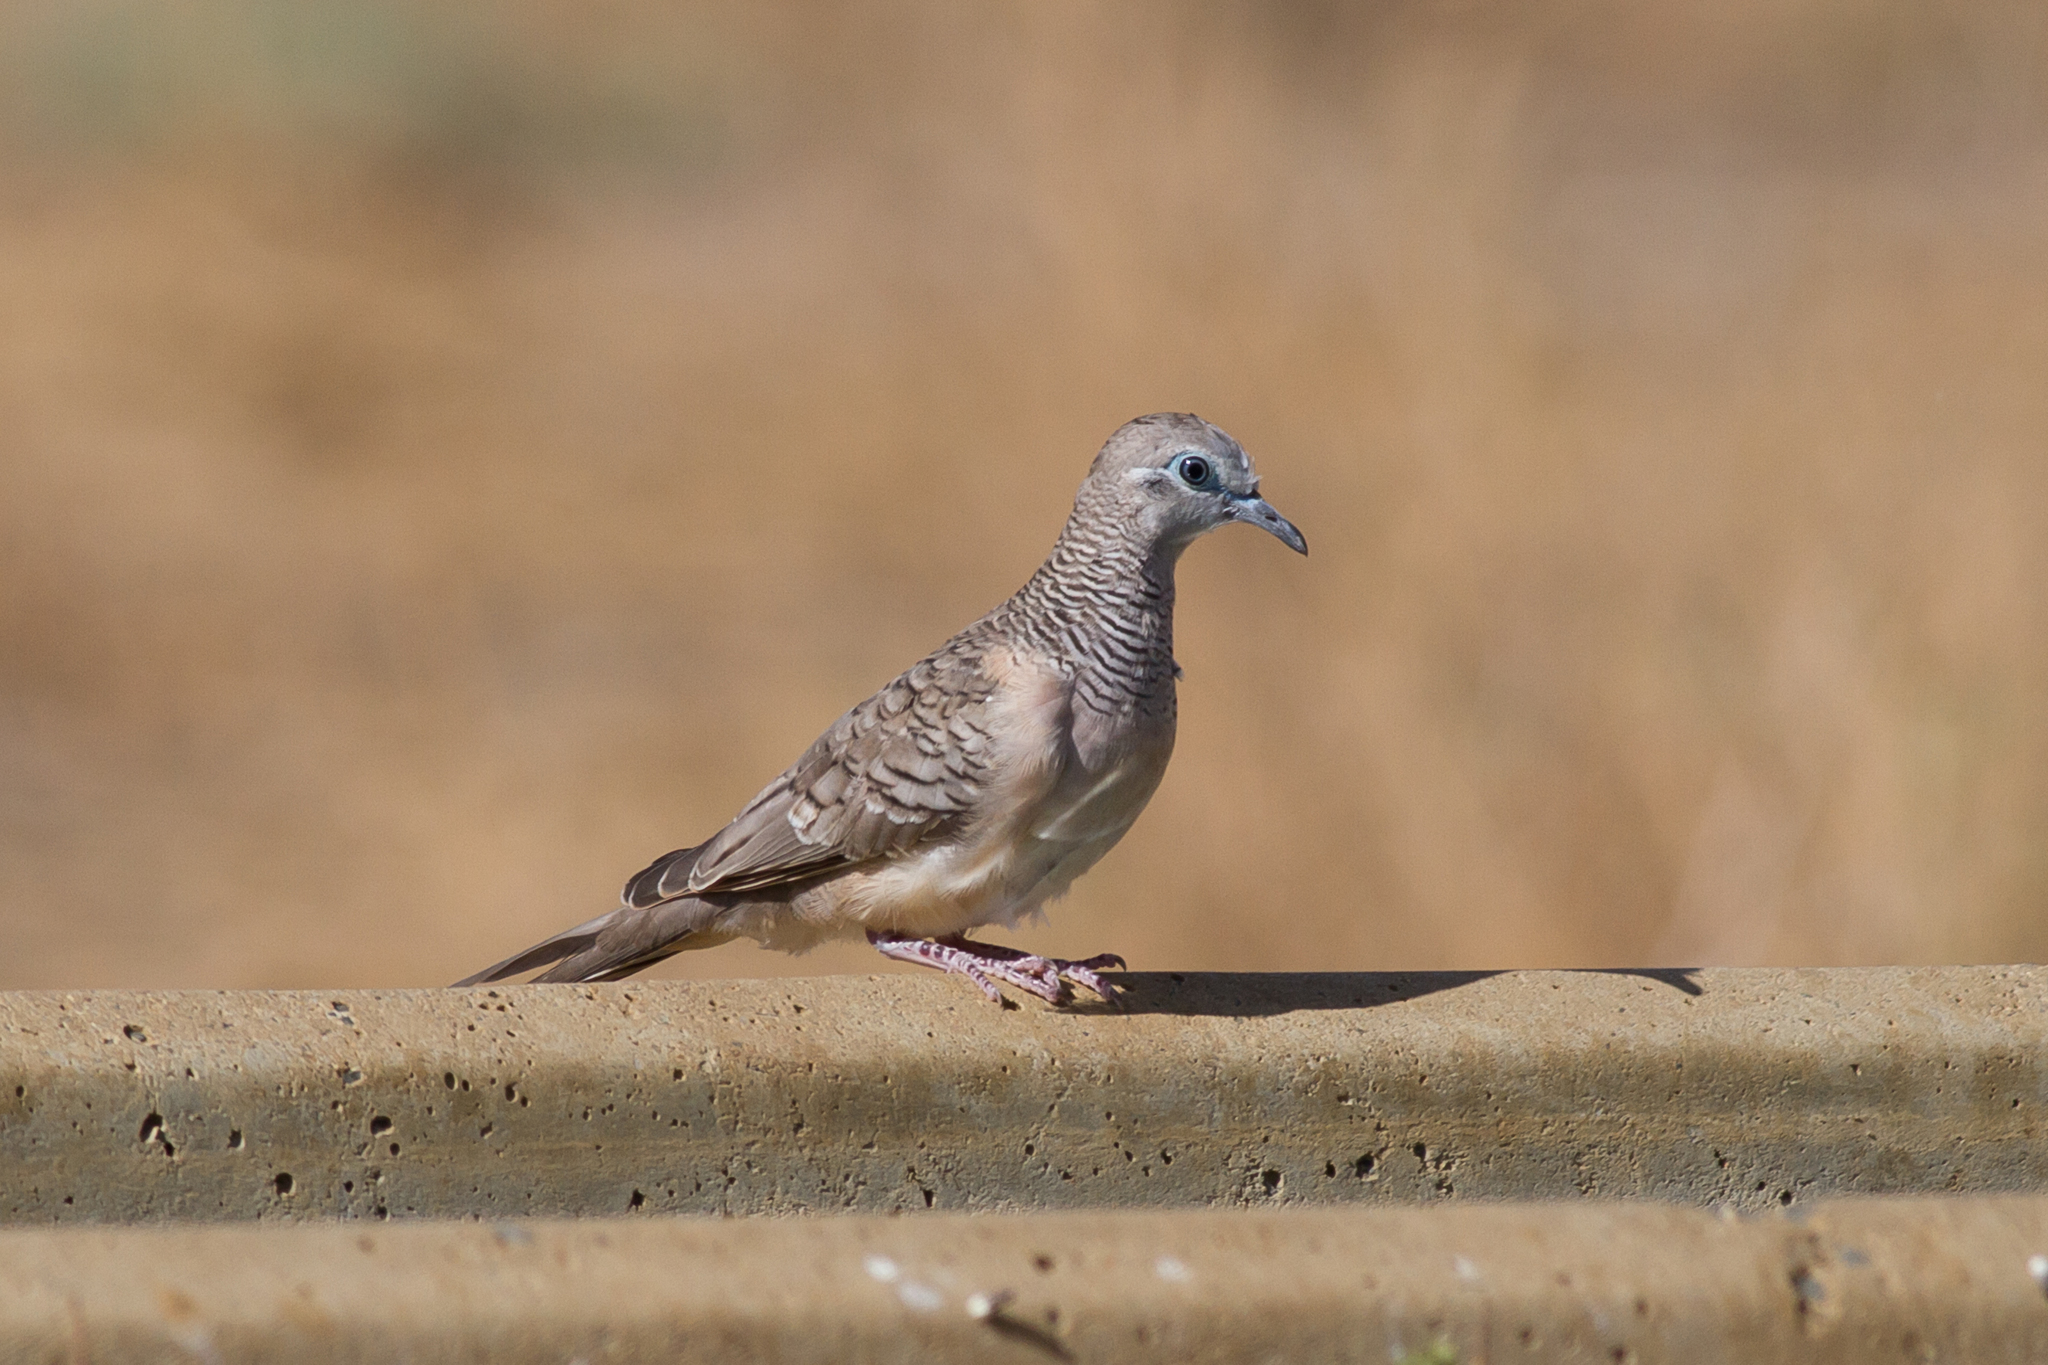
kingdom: Animalia
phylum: Chordata
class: Aves
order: Columbiformes
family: Columbidae
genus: Geopelia
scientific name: Geopelia placida
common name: Peaceful dove
